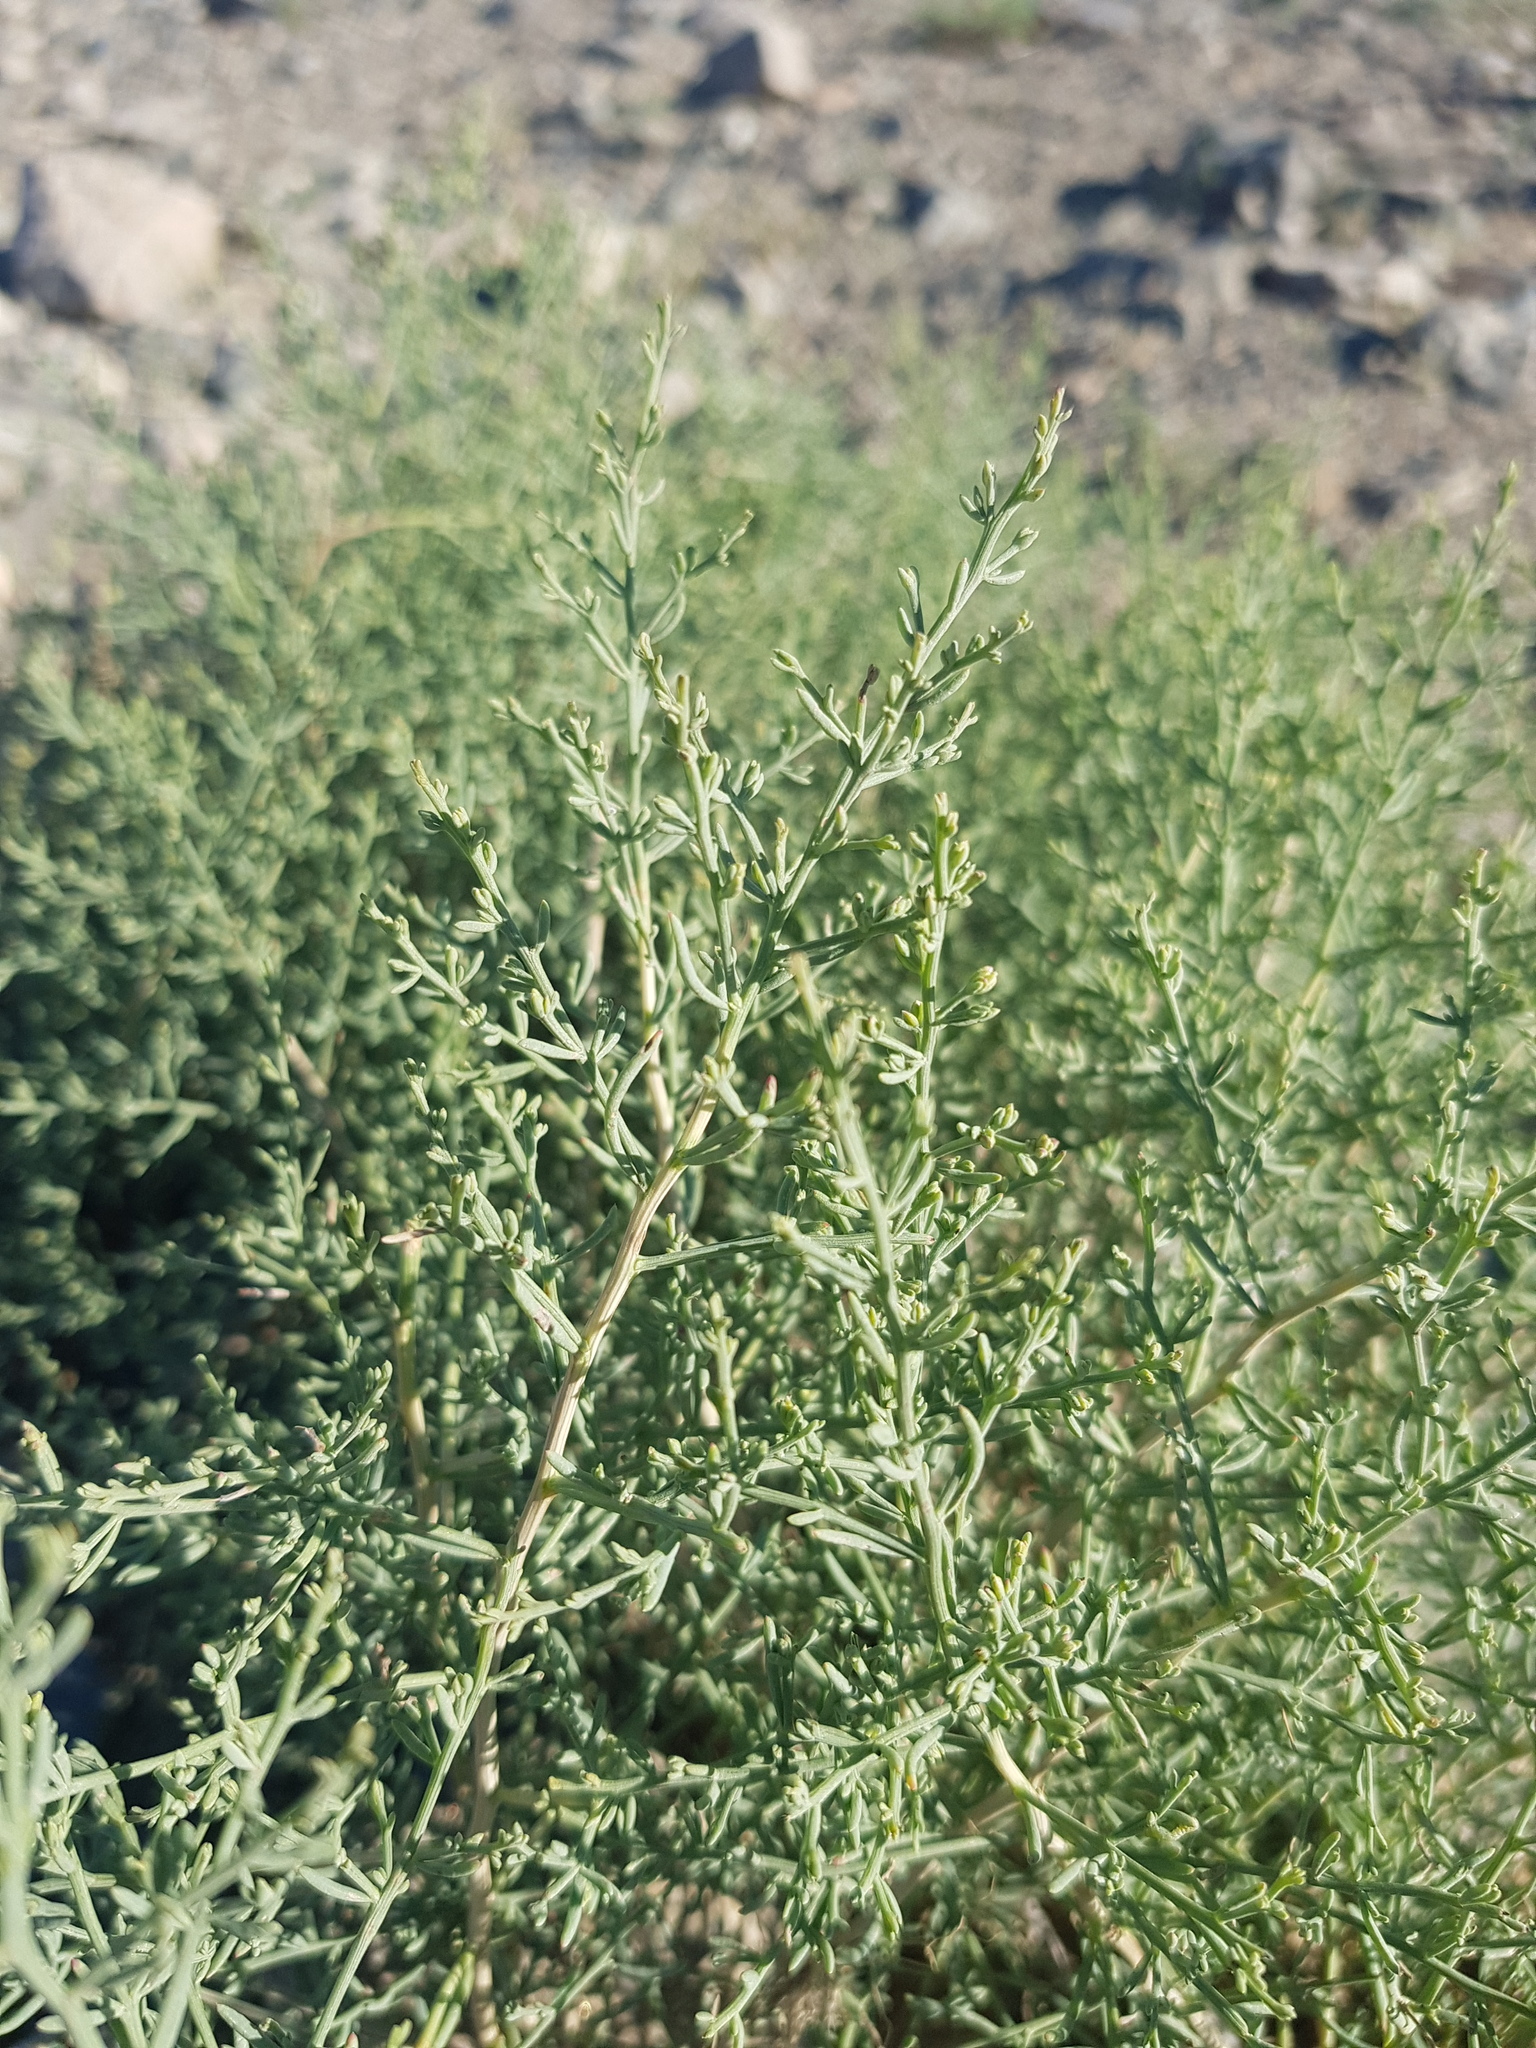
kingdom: Plantae
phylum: Tracheophyta
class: Magnoliopsida
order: Caryophyllales
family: Amaranthaceae
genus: Sympegma
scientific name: Sympegma regelii
